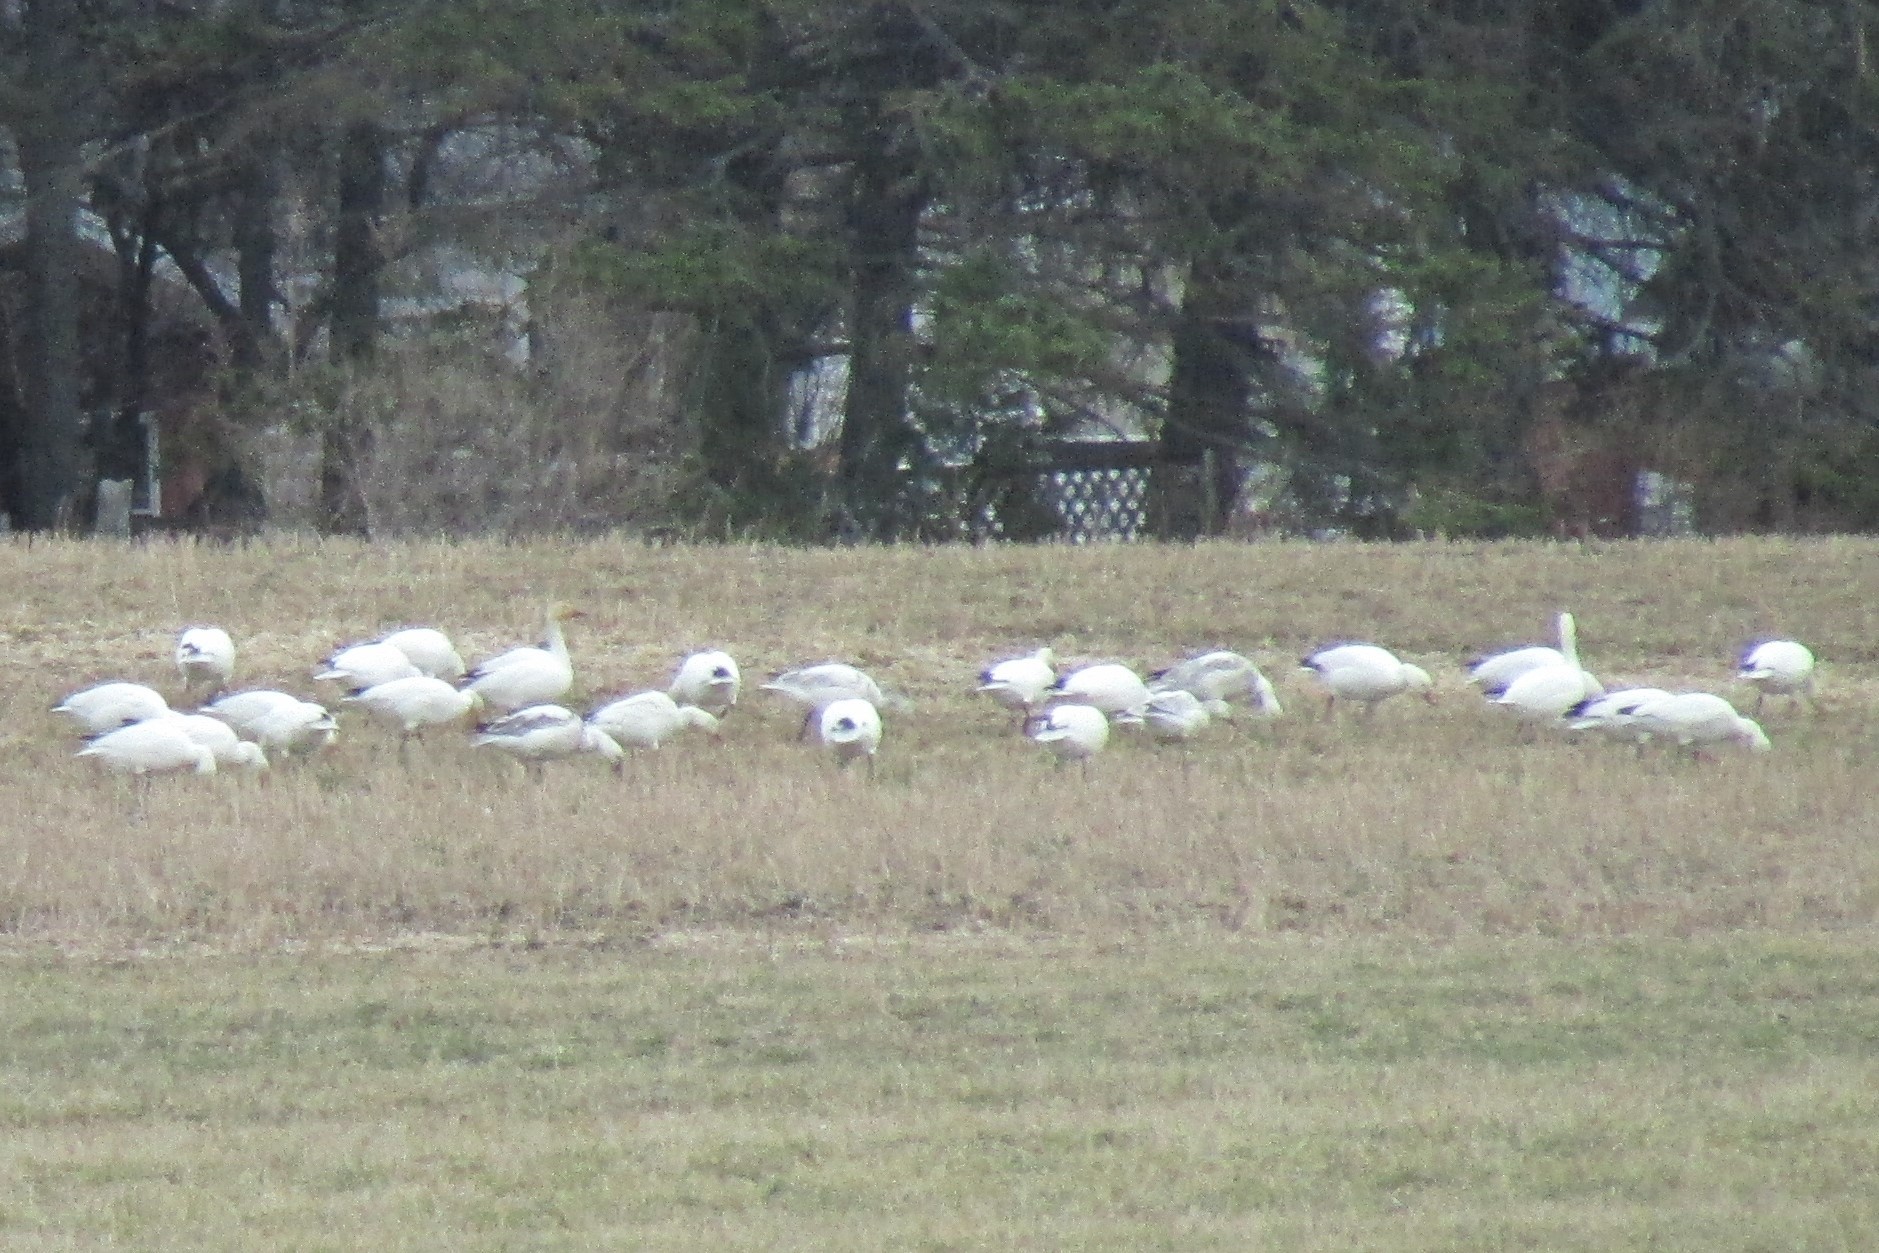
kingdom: Animalia
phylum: Chordata
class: Aves
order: Anseriformes
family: Anatidae
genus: Anser
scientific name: Anser caerulescens
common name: Snow goose
